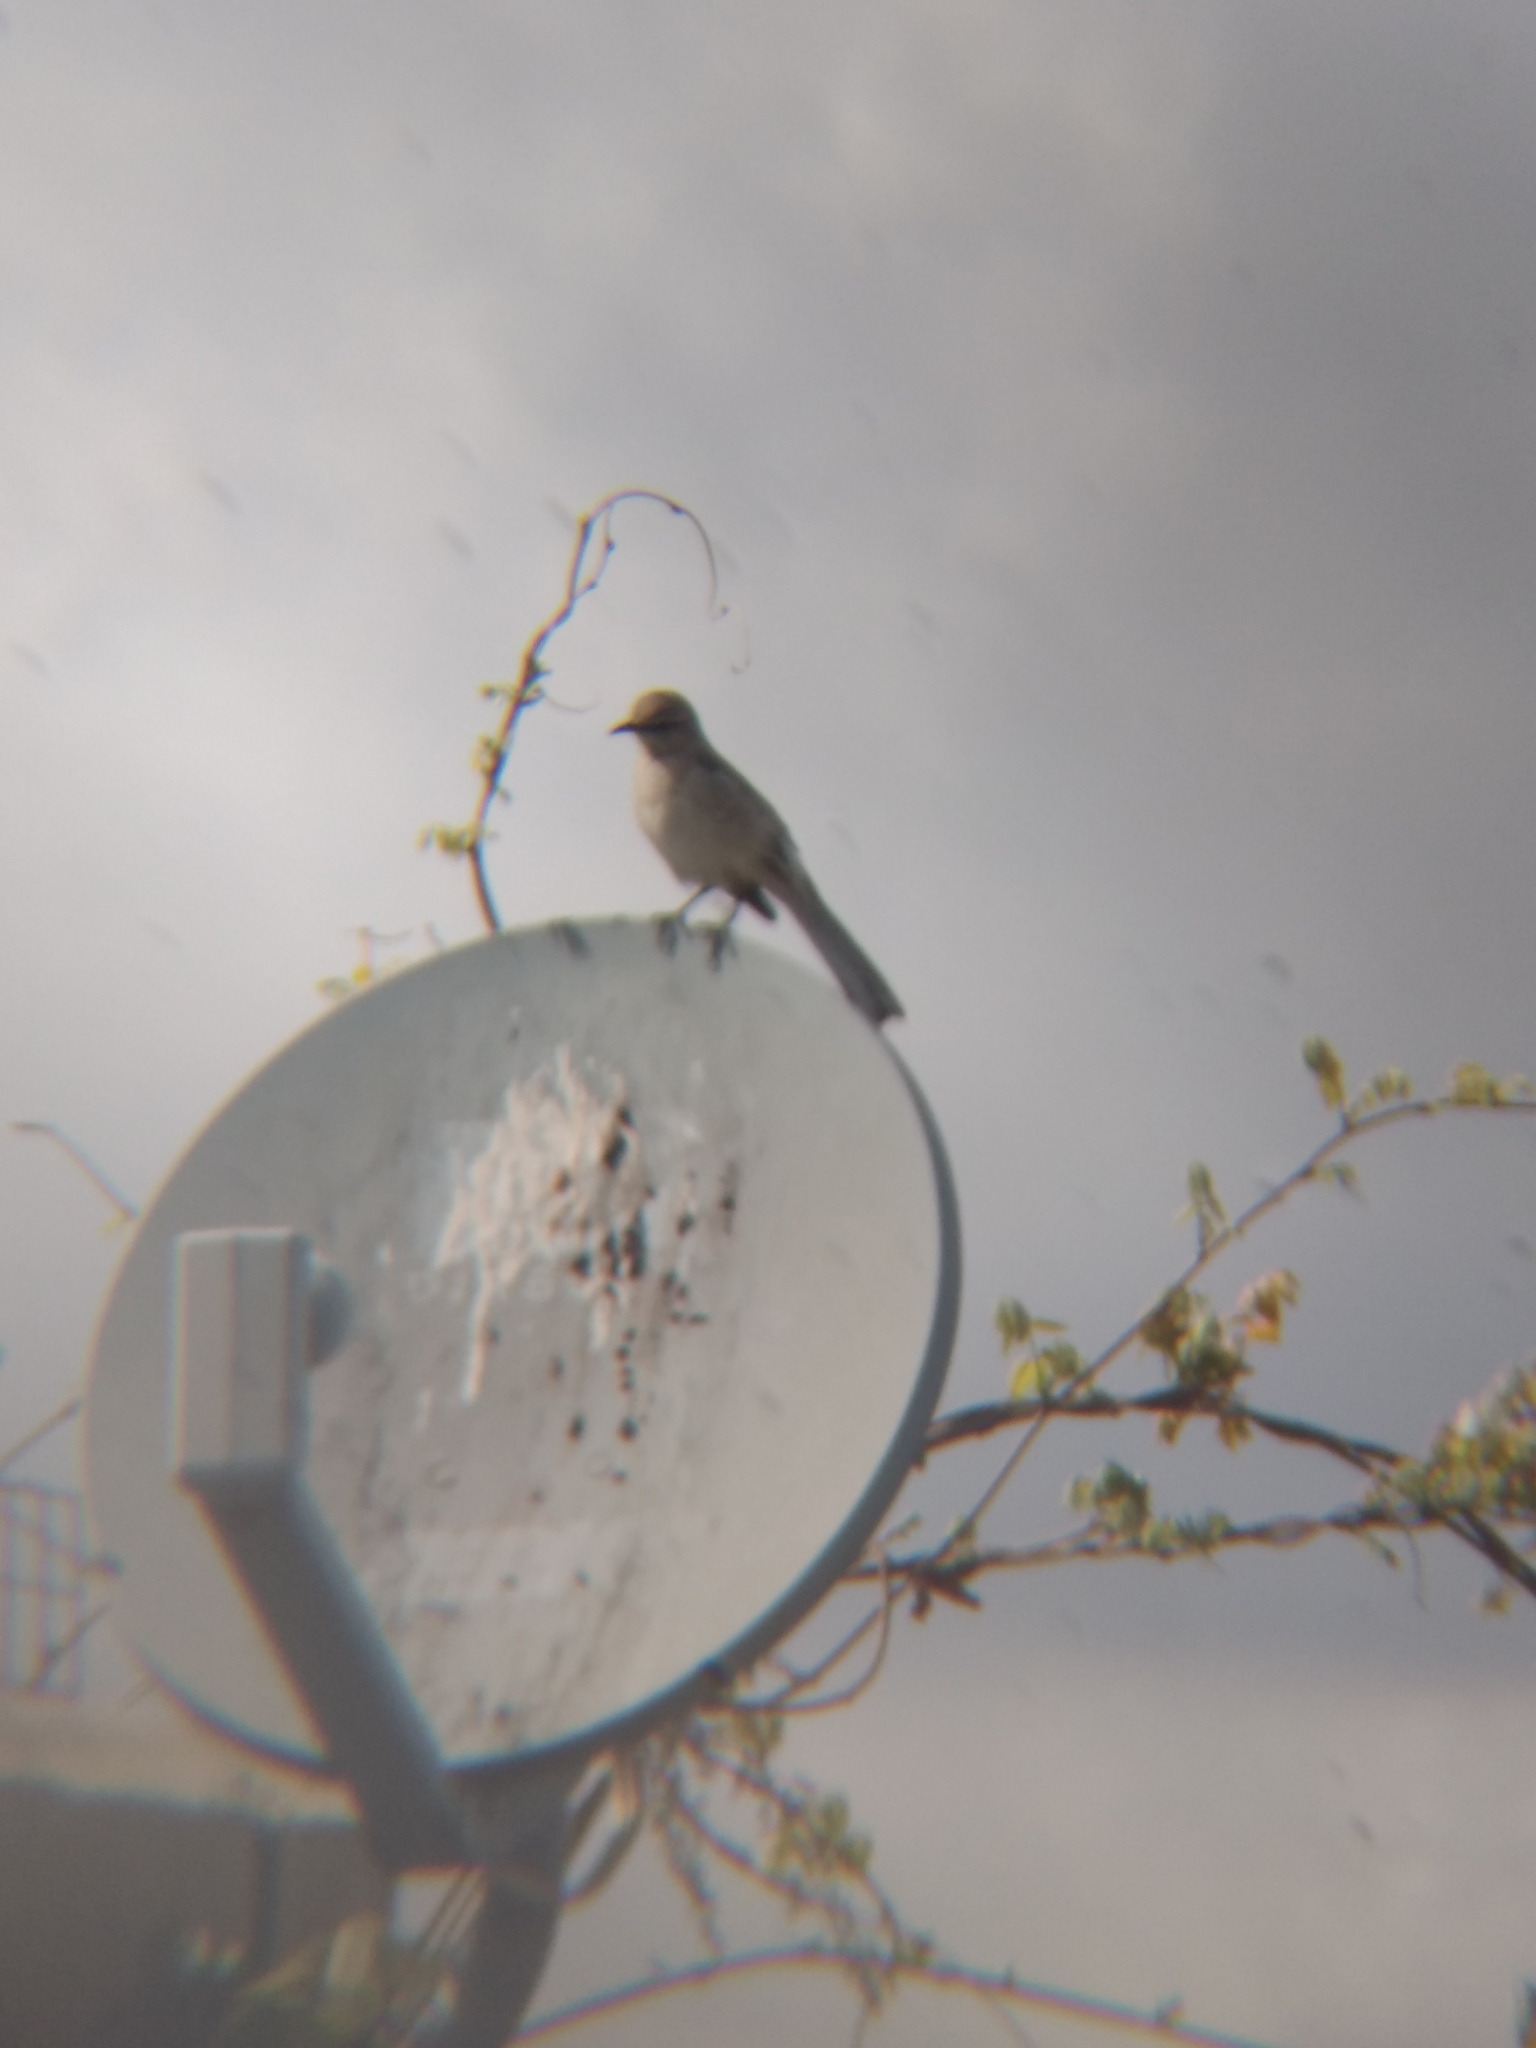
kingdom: Animalia
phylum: Chordata
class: Aves
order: Passeriformes
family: Mimidae
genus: Mimus
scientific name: Mimus polyglottos
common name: Northern mockingbird
